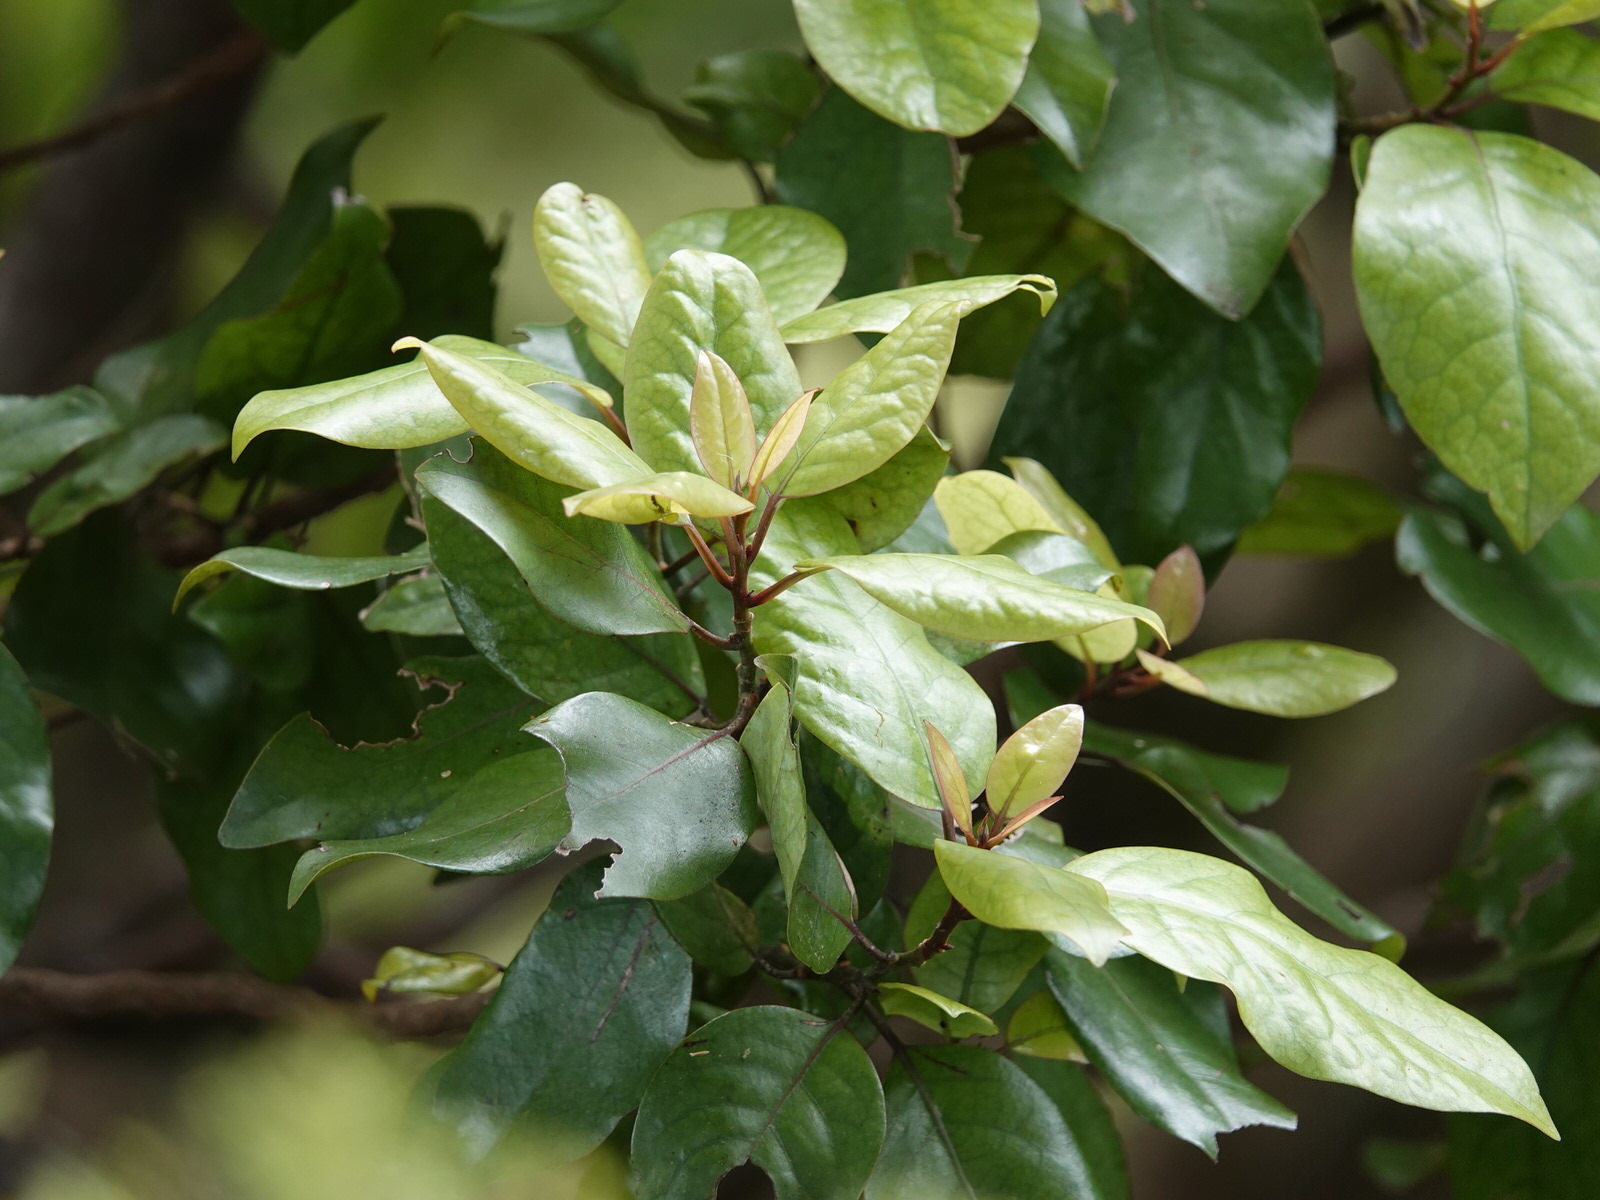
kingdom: Plantae
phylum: Tracheophyta
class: Magnoliopsida
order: Laurales
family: Lauraceae
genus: Litsea
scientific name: Litsea calicaris
